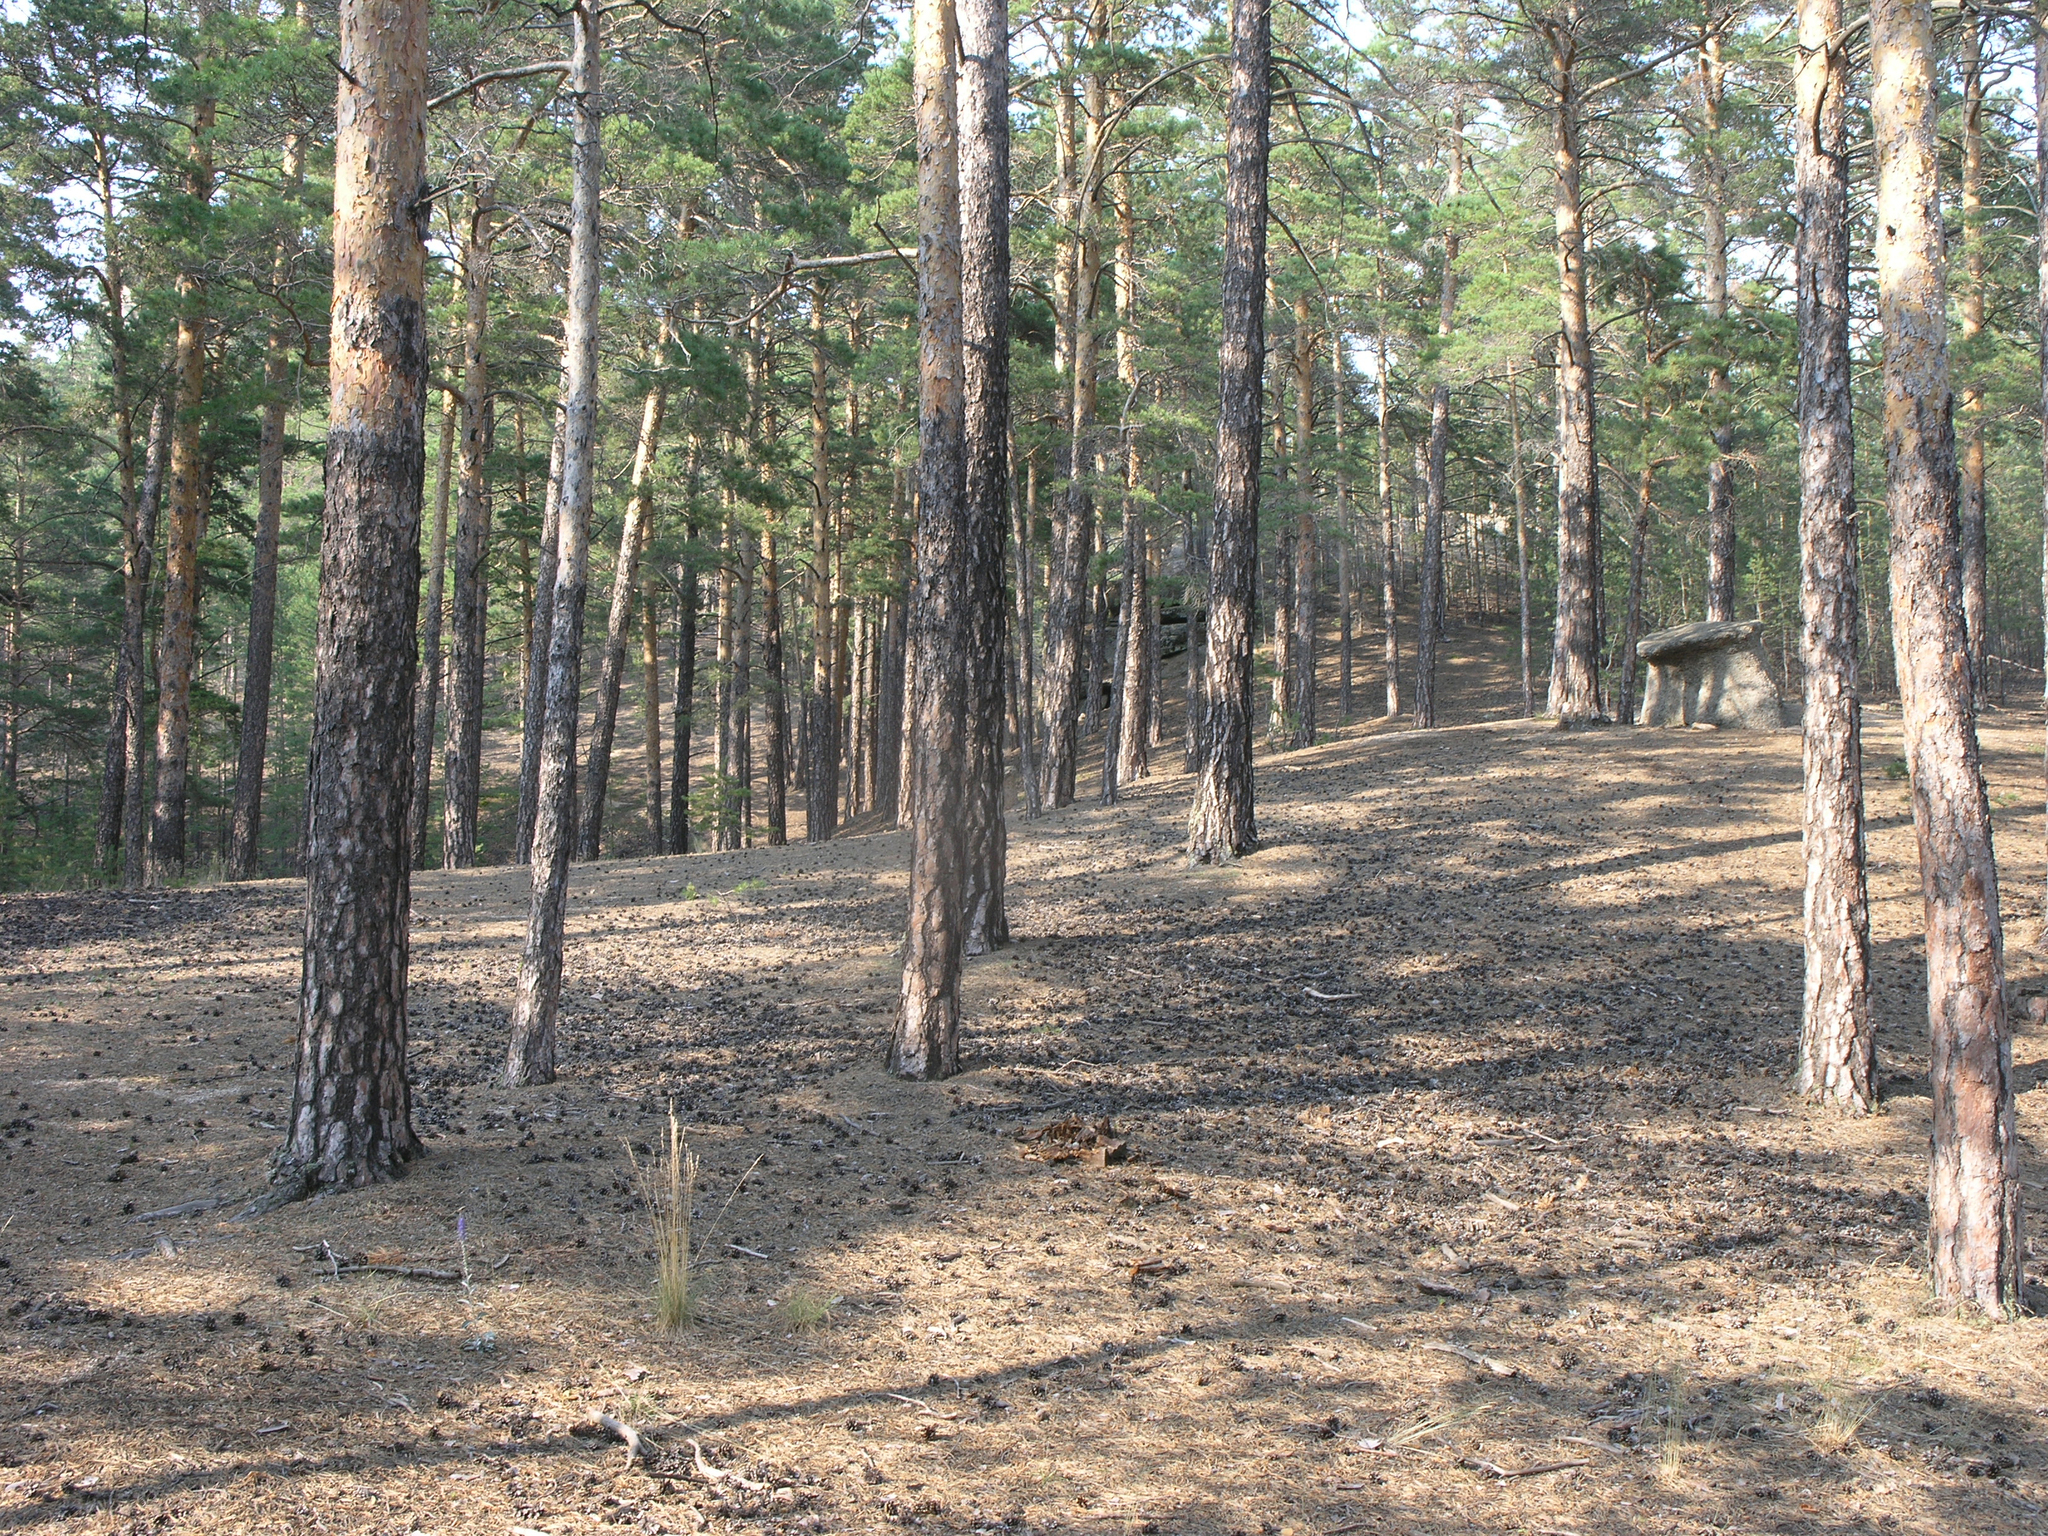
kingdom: Plantae
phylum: Tracheophyta
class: Pinopsida
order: Pinales
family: Pinaceae
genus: Pinus
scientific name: Pinus sylvestris
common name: Scots pine
